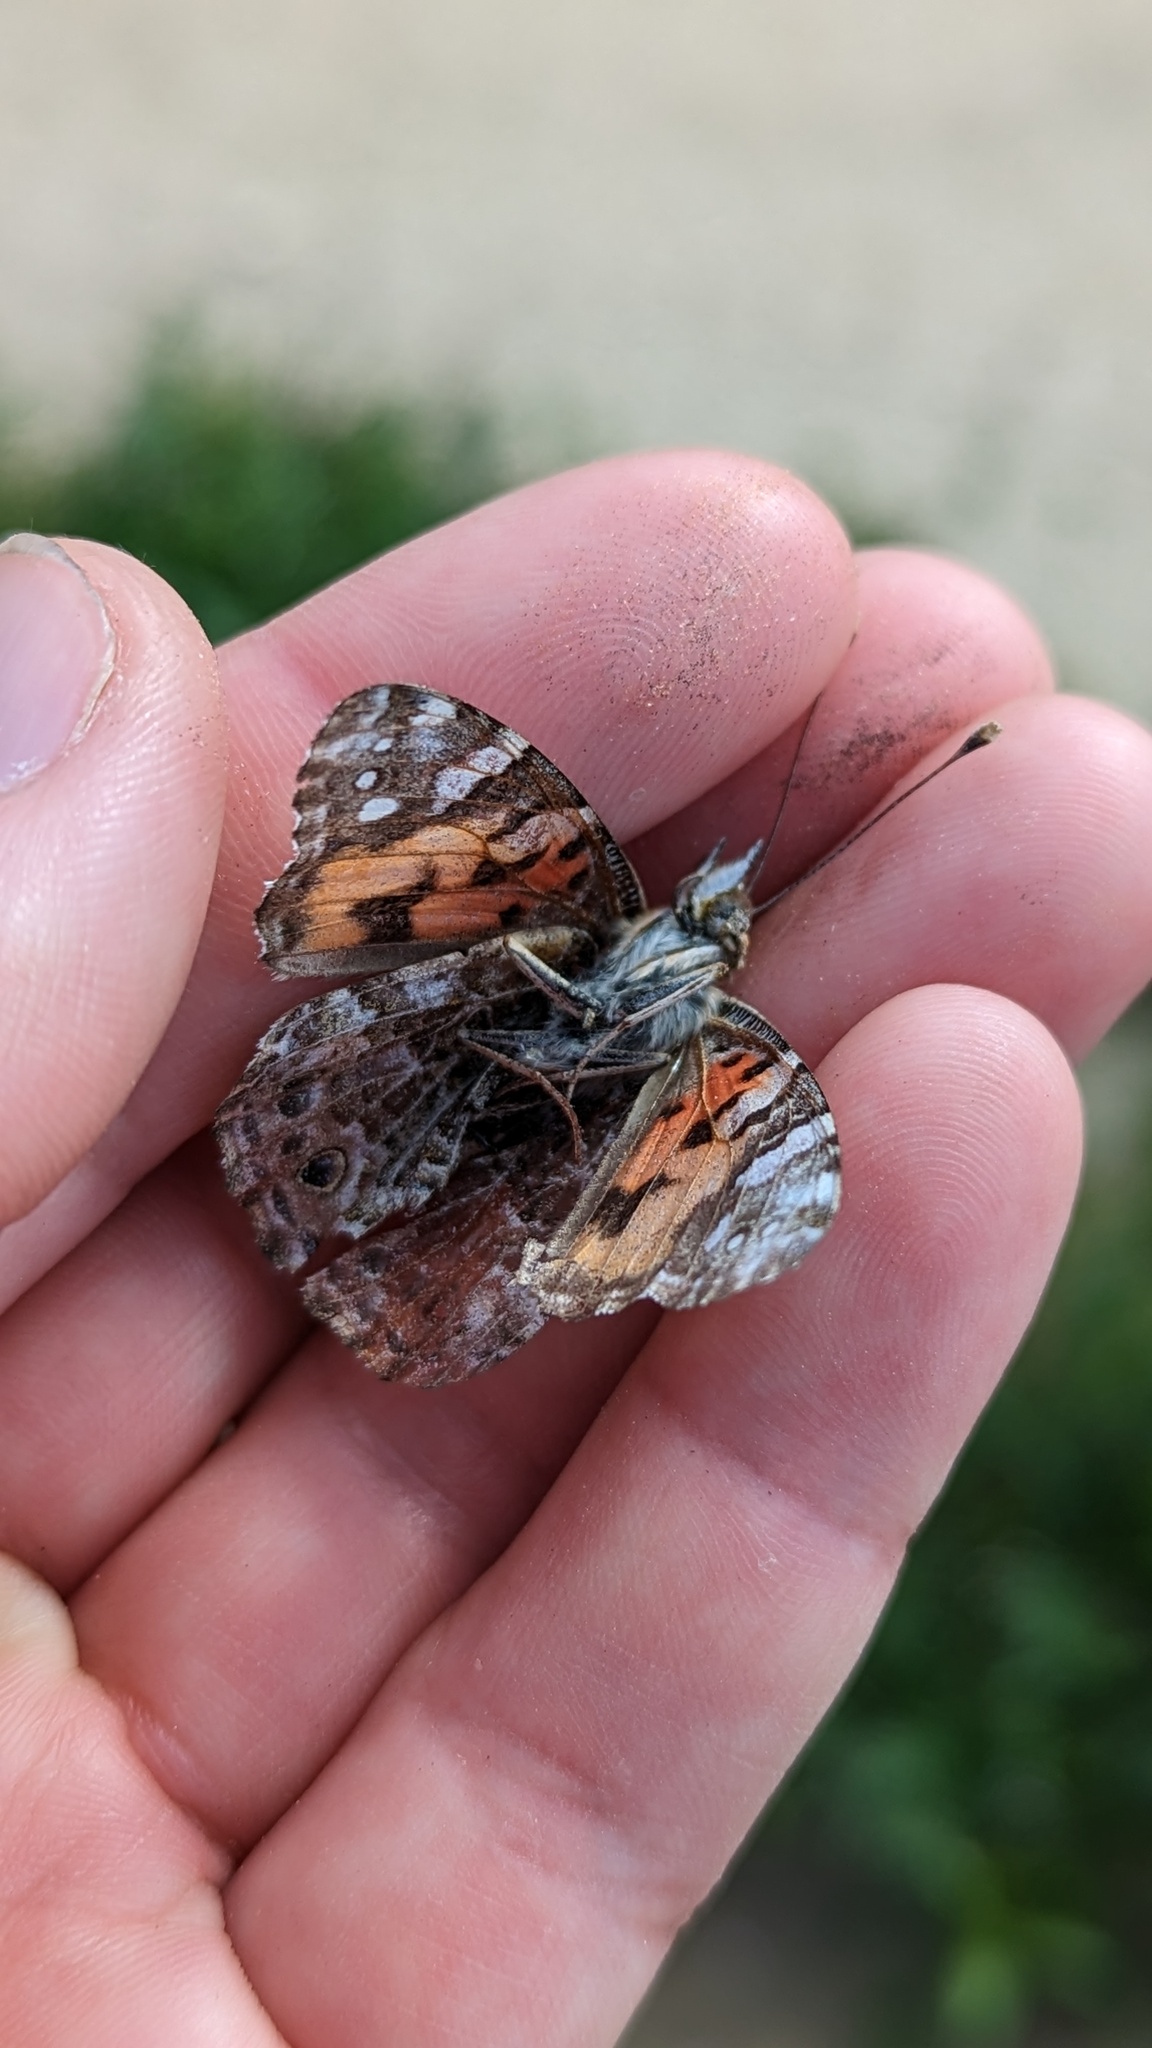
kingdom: Animalia
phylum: Arthropoda
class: Insecta
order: Lepidoptera
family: Nymphalidae
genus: Vanessa
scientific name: Vanessa cardui
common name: Painted lady
